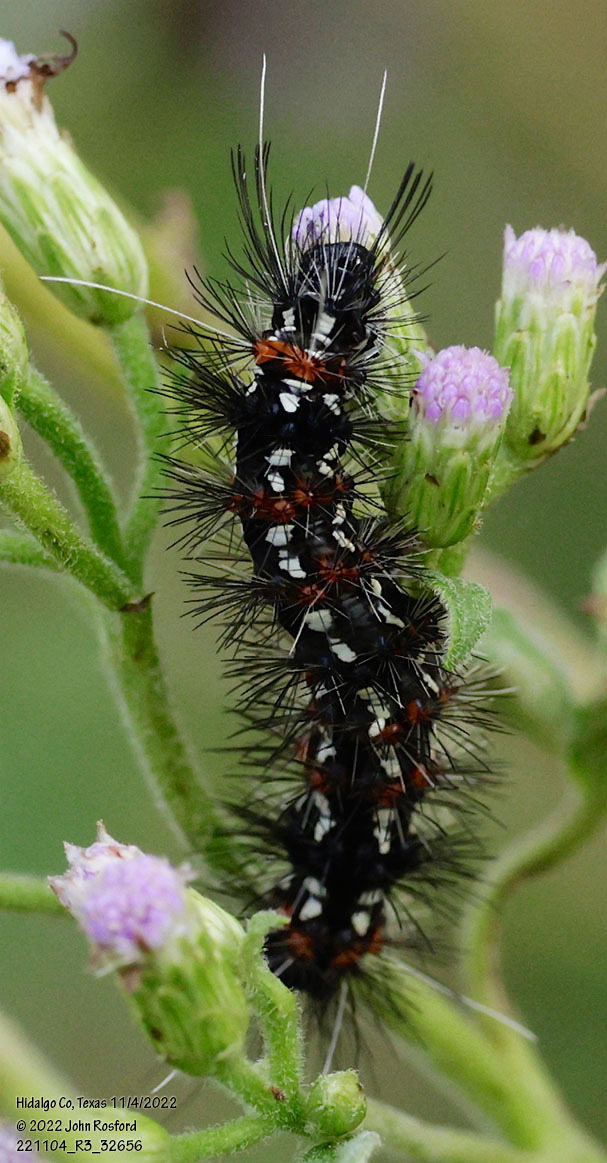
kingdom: Animalia
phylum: Arthropoda
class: Insecta
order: Lepidoptera
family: Erebidae
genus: Pareuchaetes
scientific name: Pareuchaetes insulata
